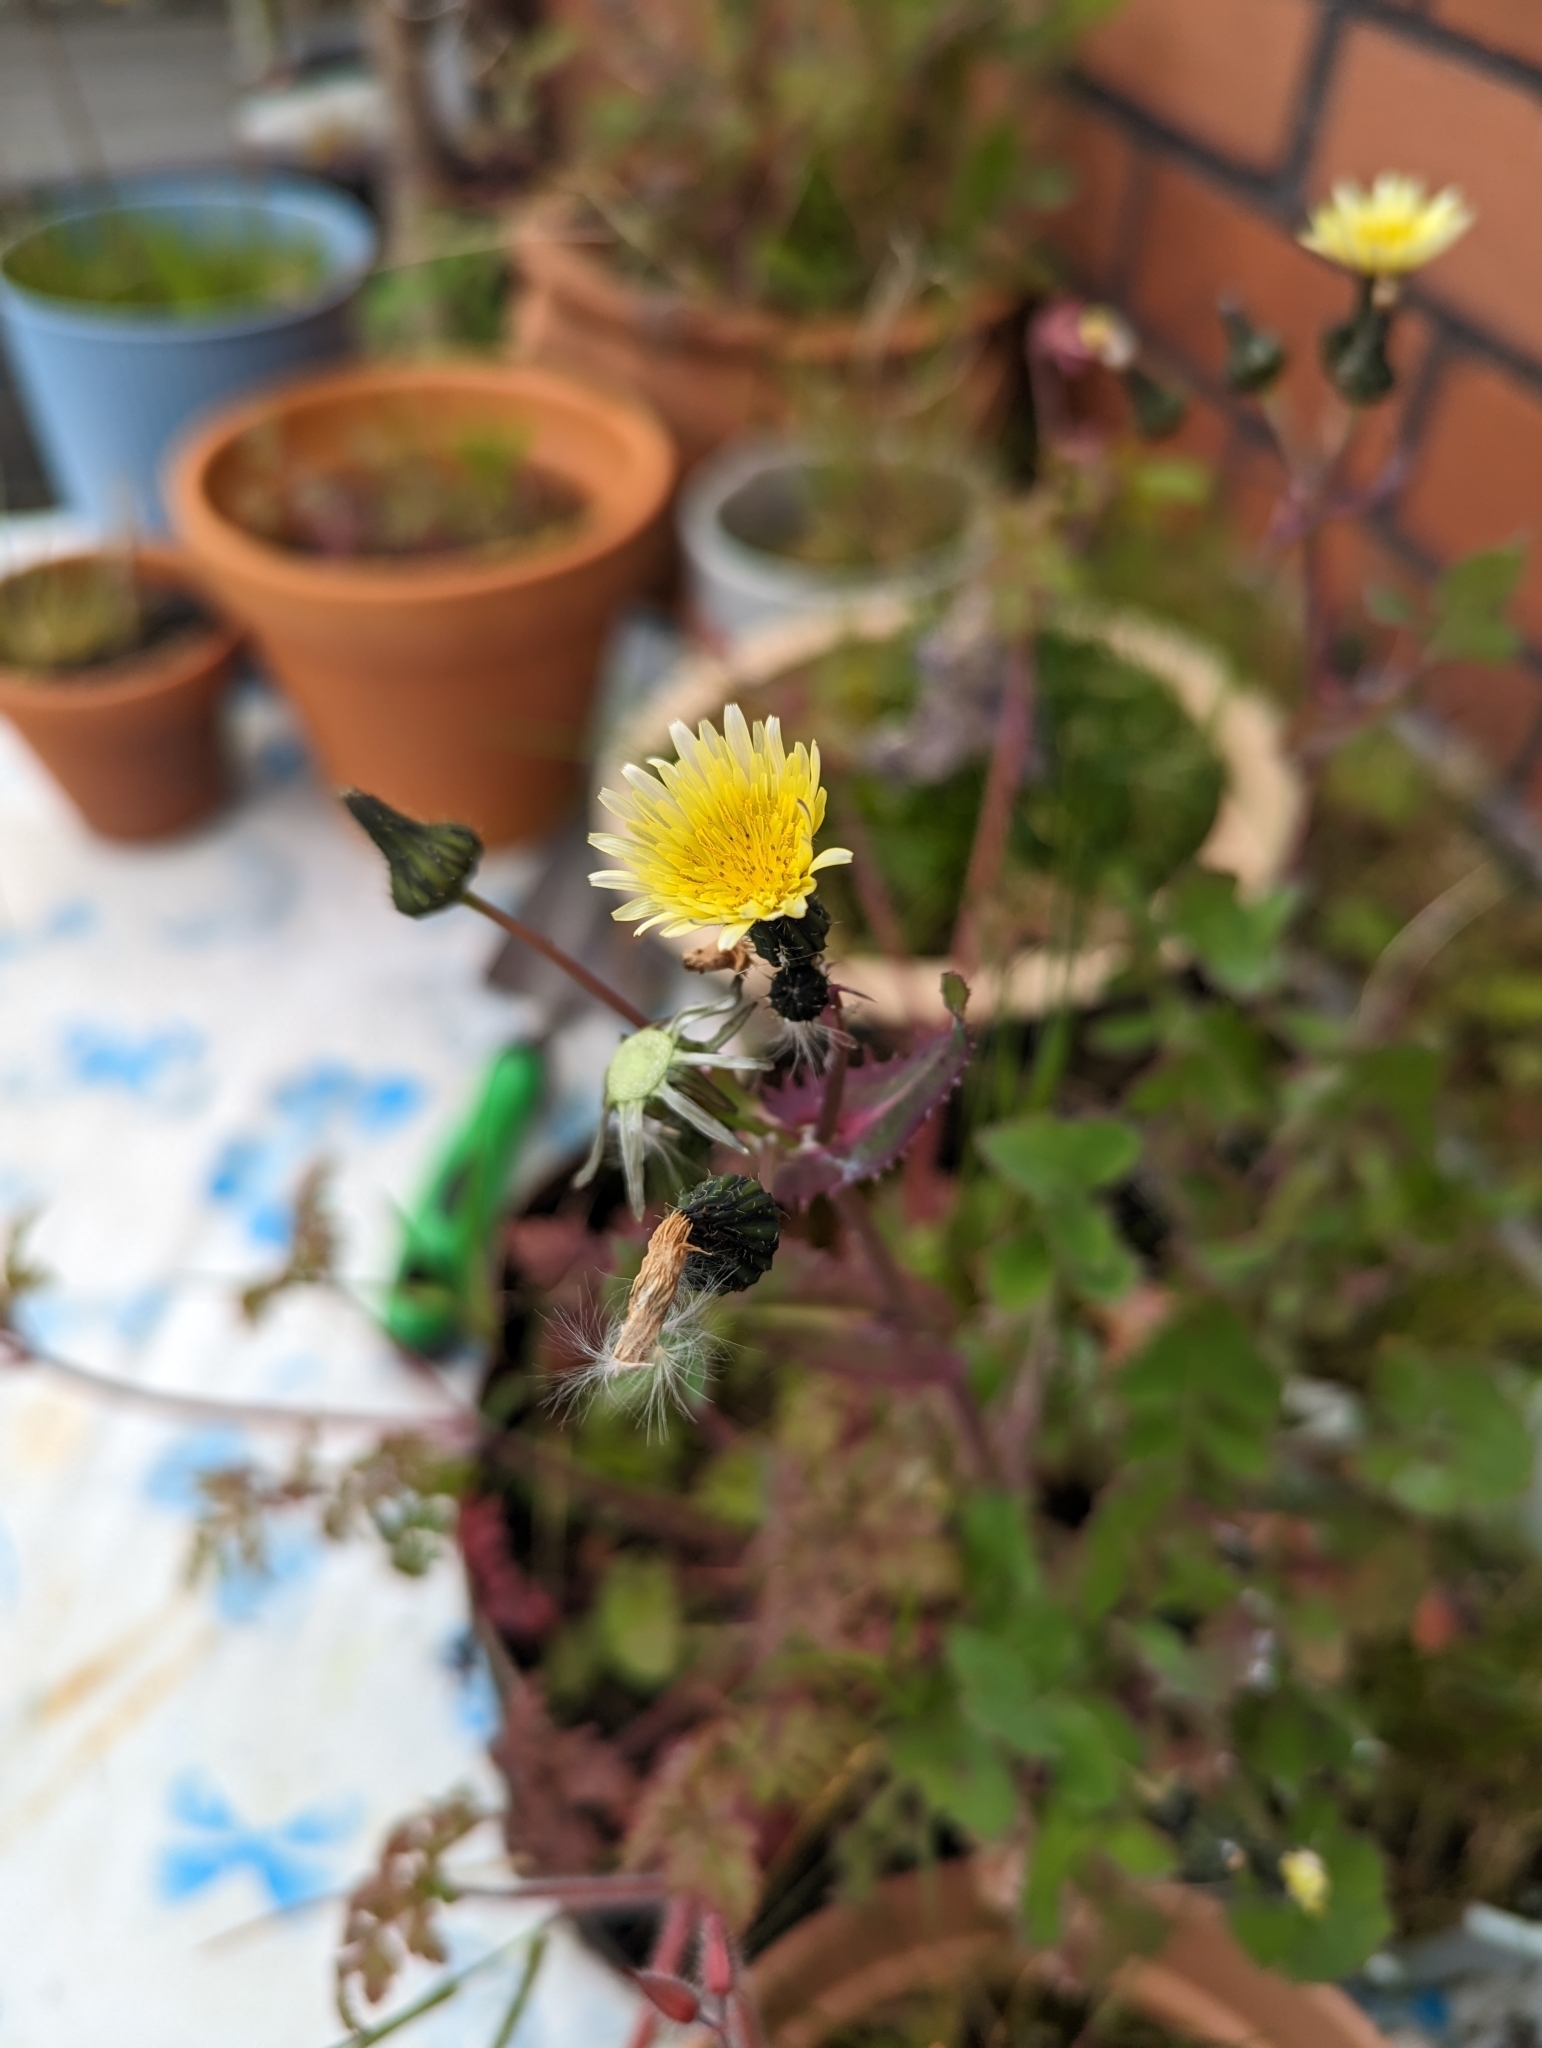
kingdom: Plantae
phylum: Tracheophyta
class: Magnoliopsida
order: Asterales
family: Asteraceae
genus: Sonchus
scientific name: Sonchus oleraceus
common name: Common sowthistle
